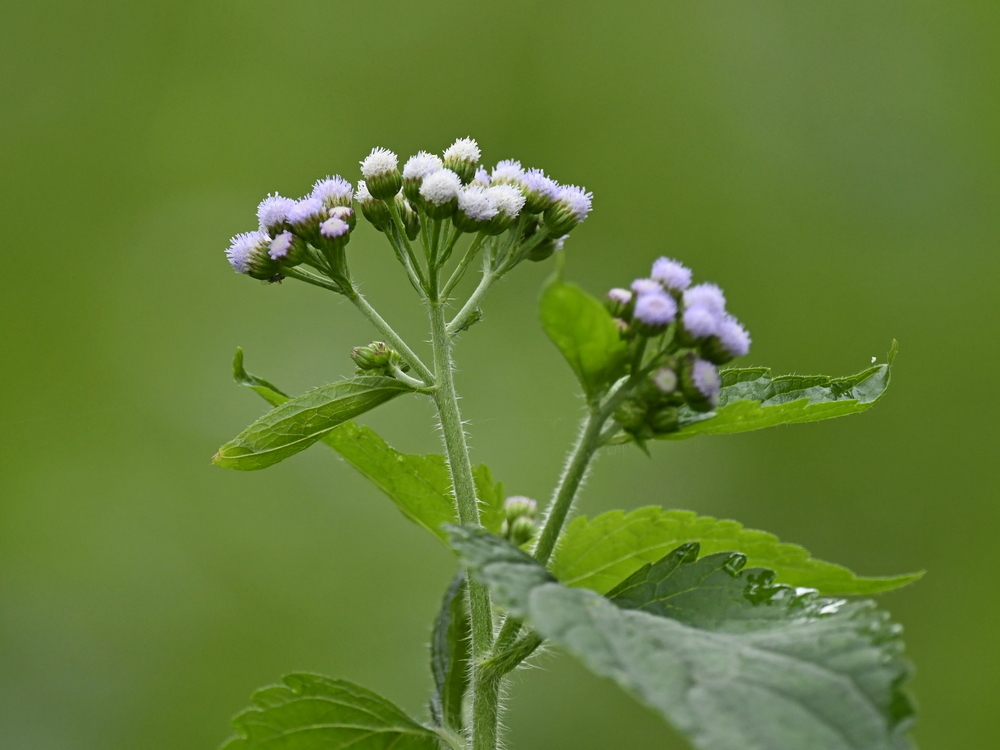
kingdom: Plantae
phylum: Tracheophyta
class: Magnoliopsida
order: Asterales
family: Asteraceae
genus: Ageratum
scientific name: Ageratum conyzoides
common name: Tropical whiteweed
